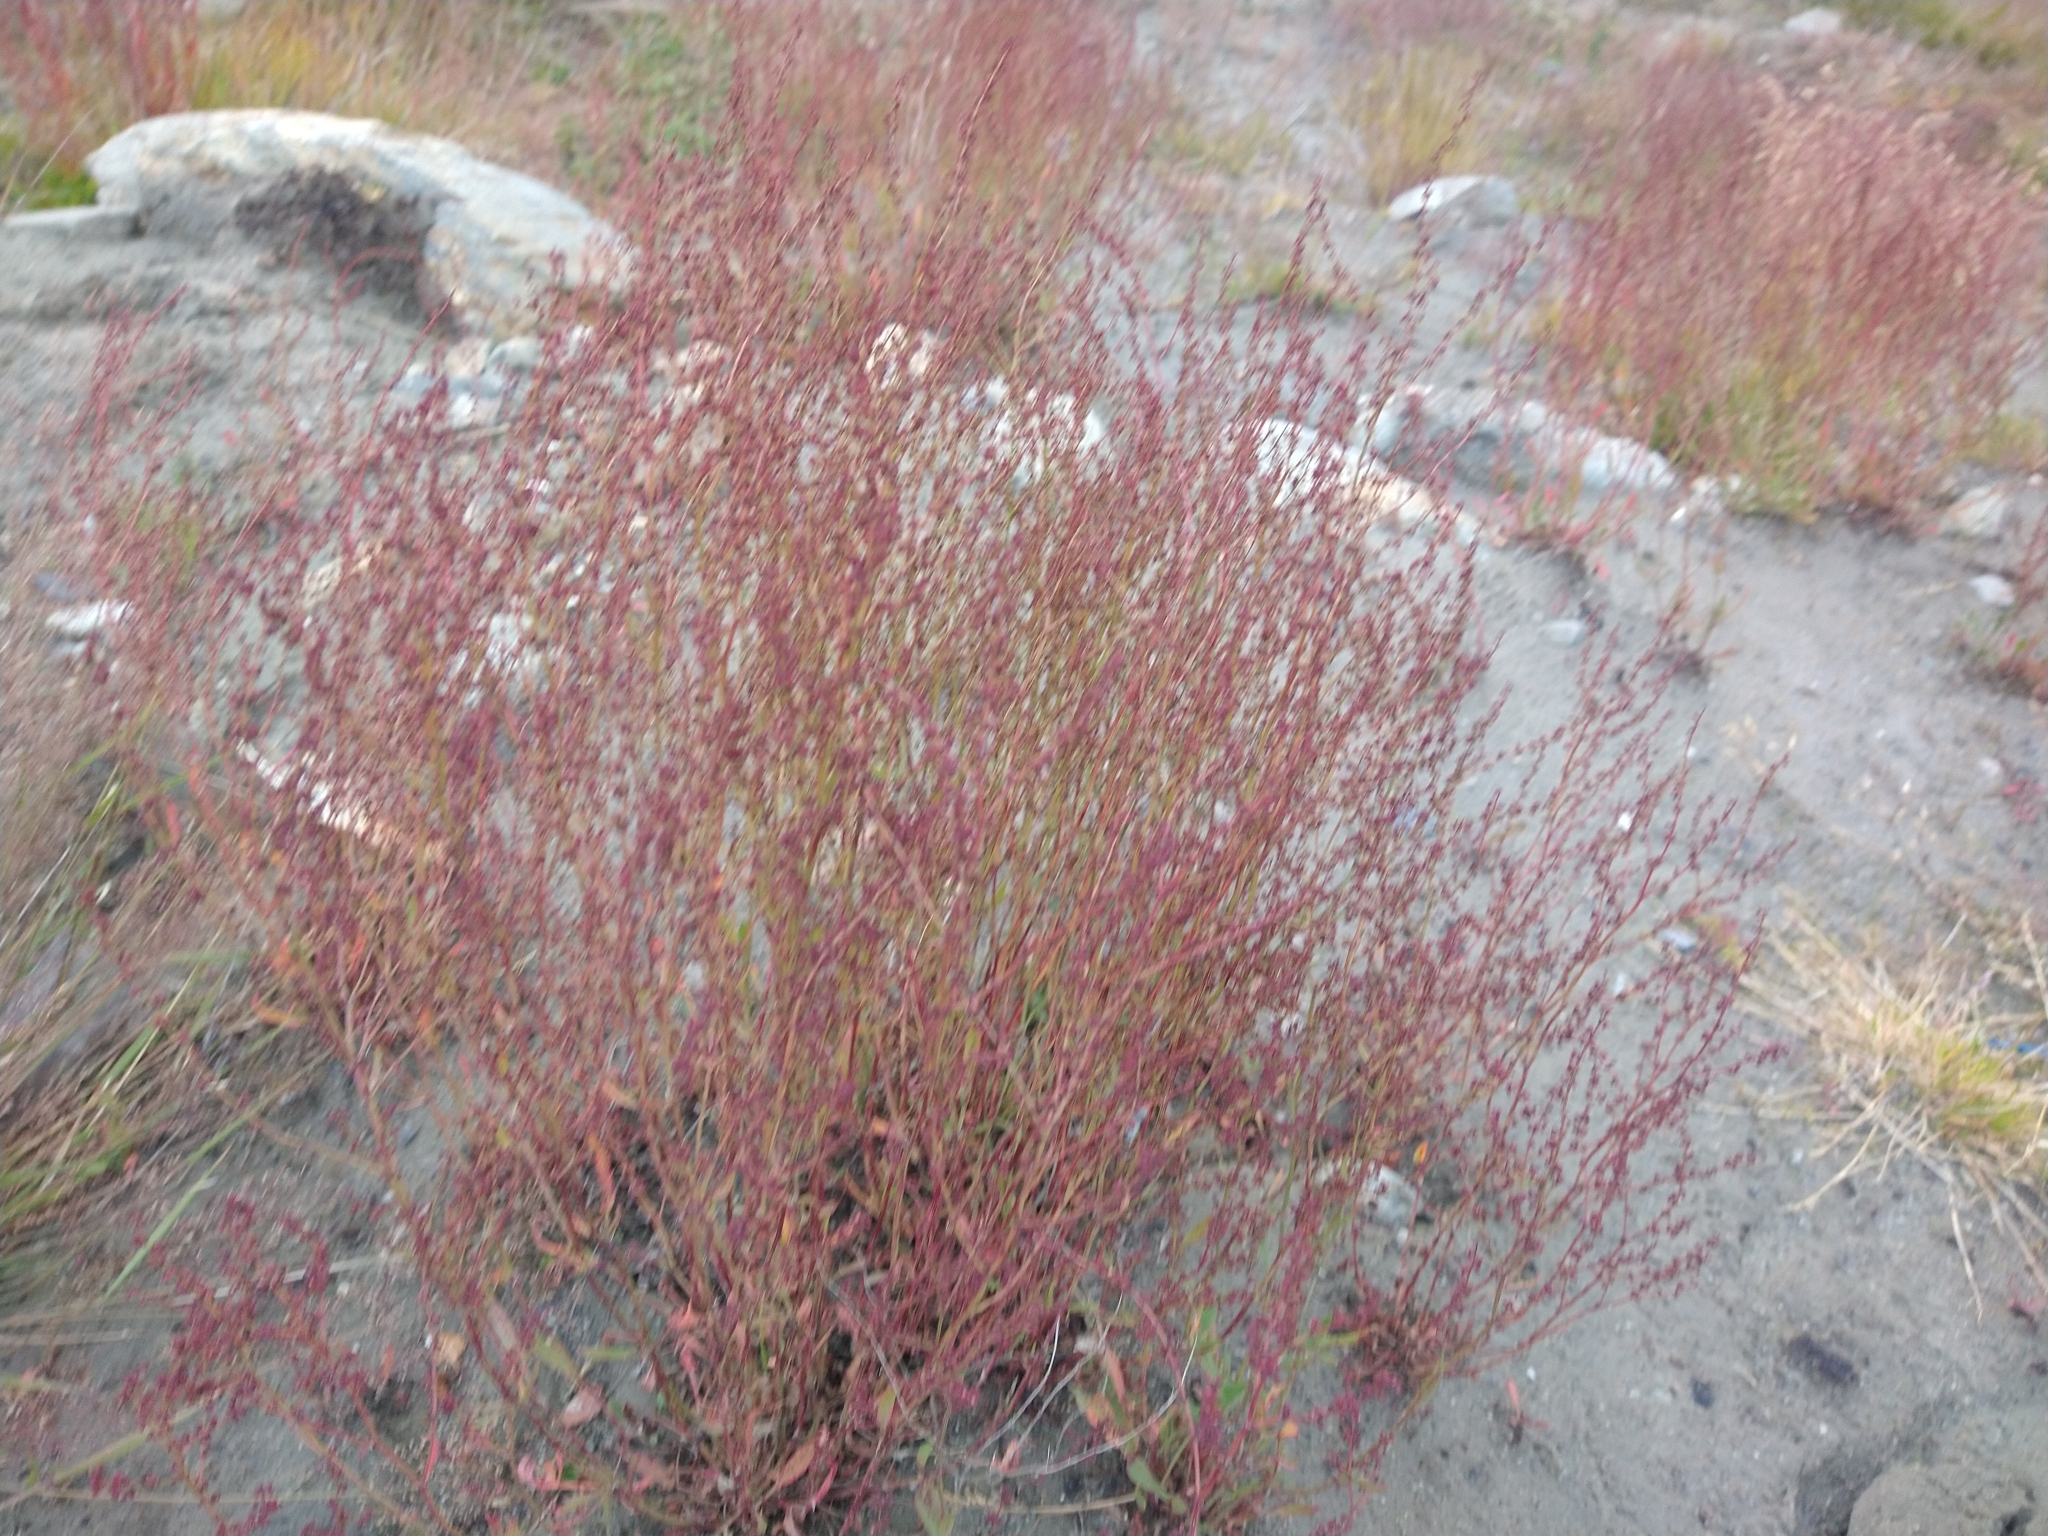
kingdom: Plantae
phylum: Tracheophyta
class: Magnoliopsida
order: Caryophyllales
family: Polygonaceae
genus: Rumex
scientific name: Rumex acetosella
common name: Common sheep sorrel
